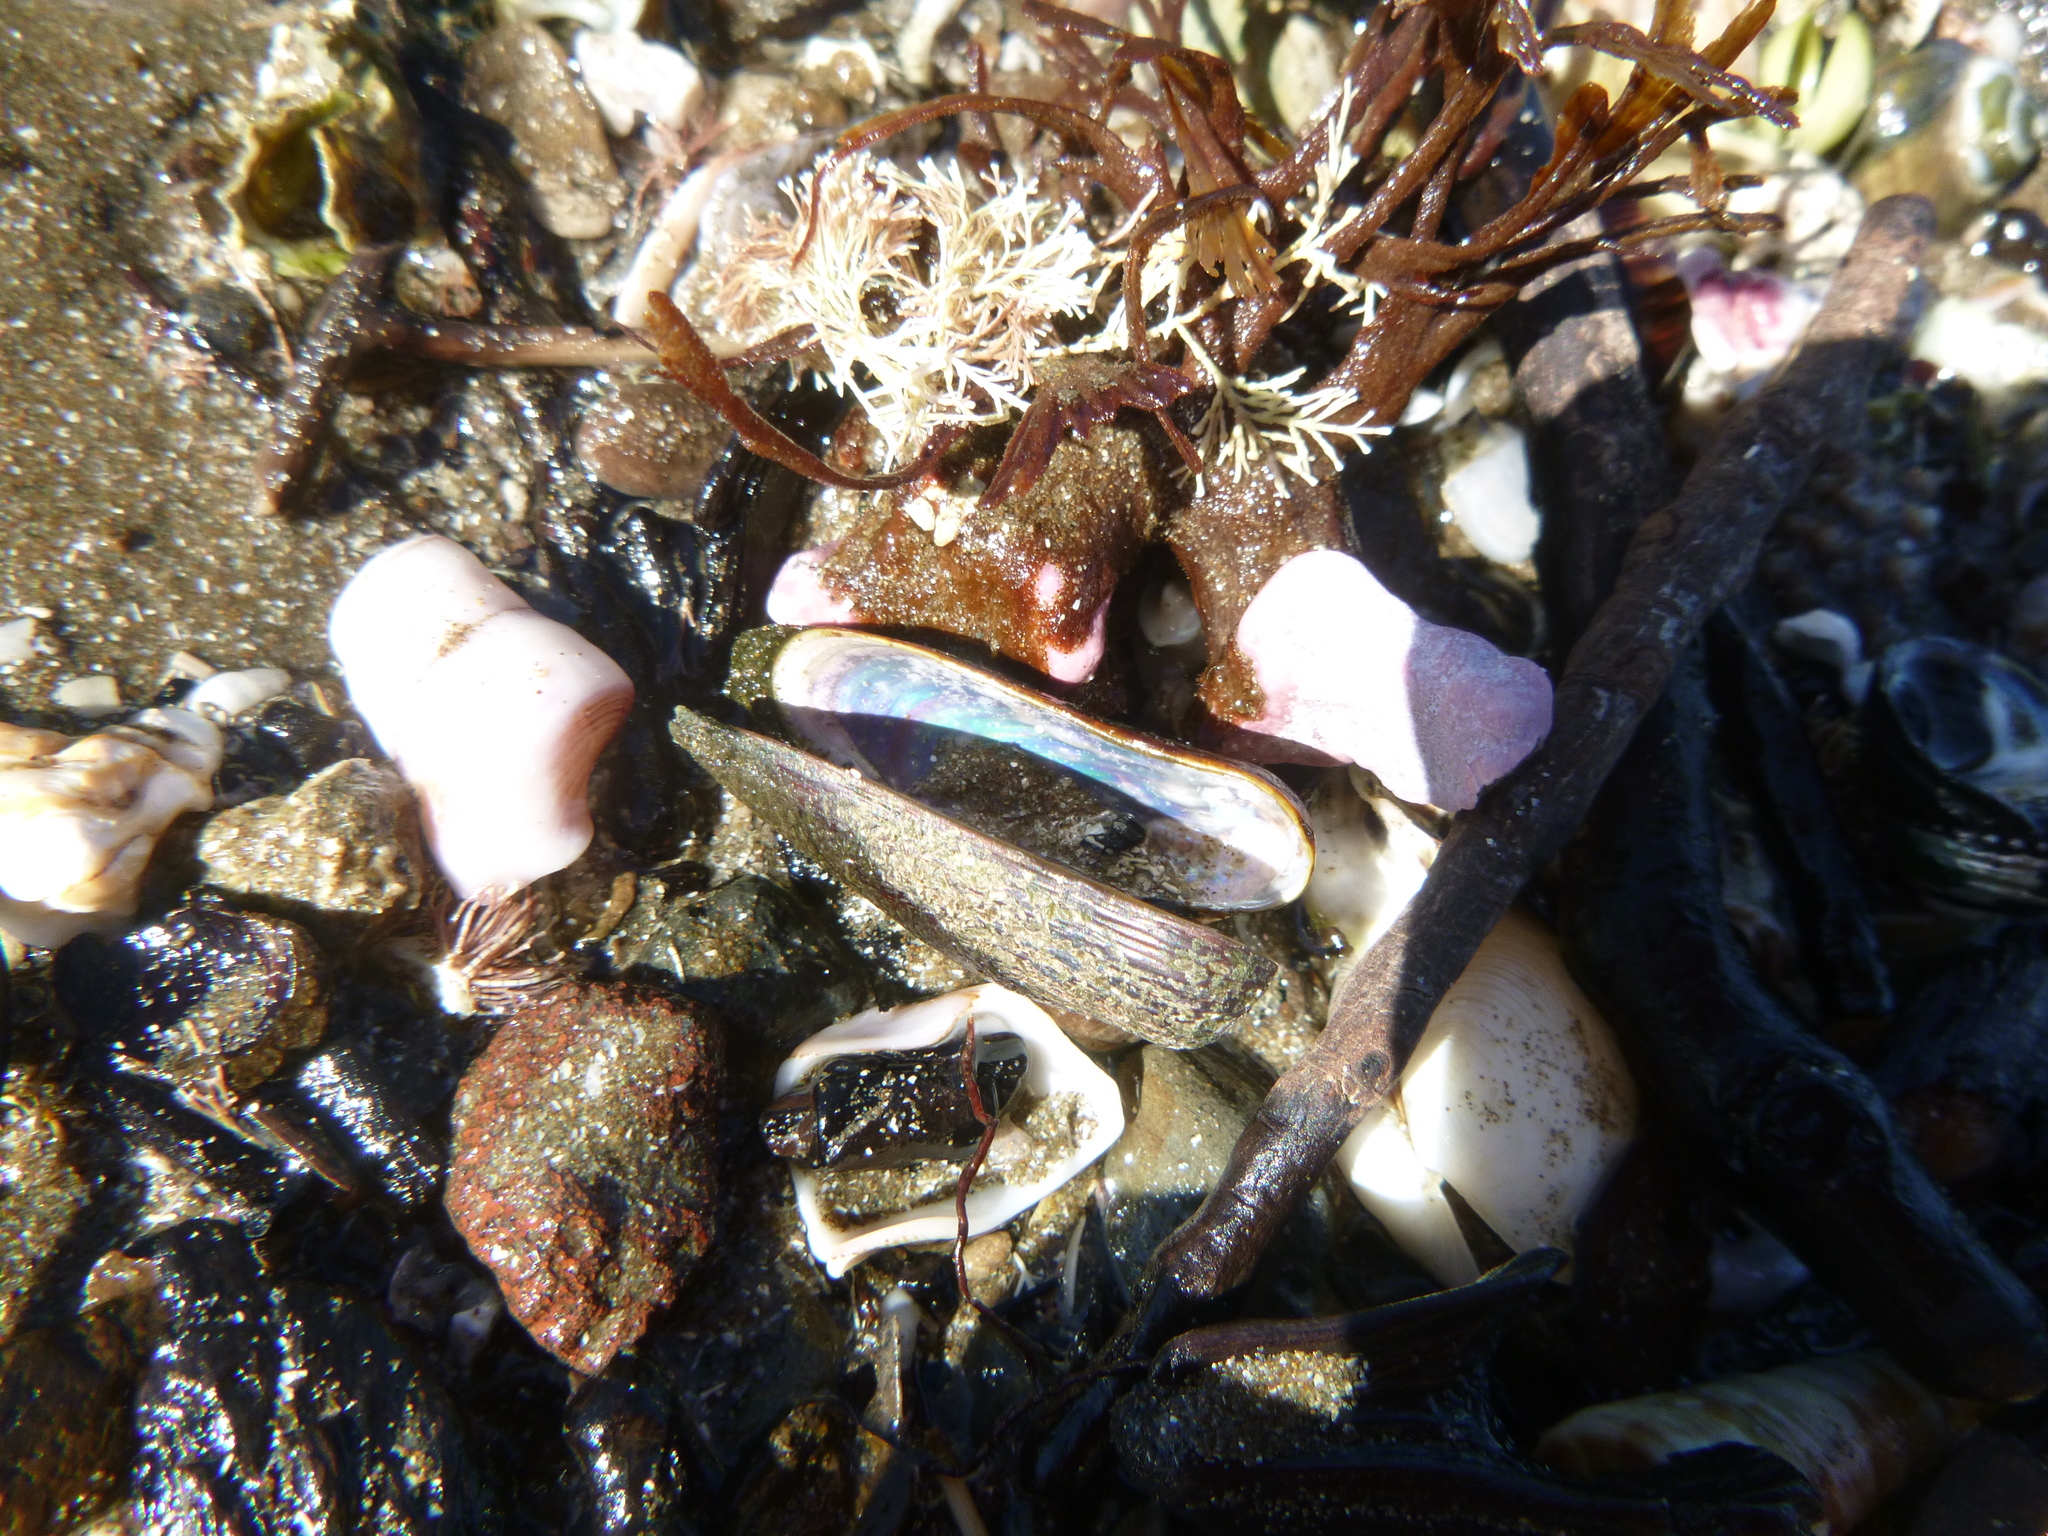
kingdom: Animalia
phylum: Mollusca
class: Bivalvia
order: Mytilida
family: Mytilidae
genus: Zelithophaga
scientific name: Zelithophaga truncata
